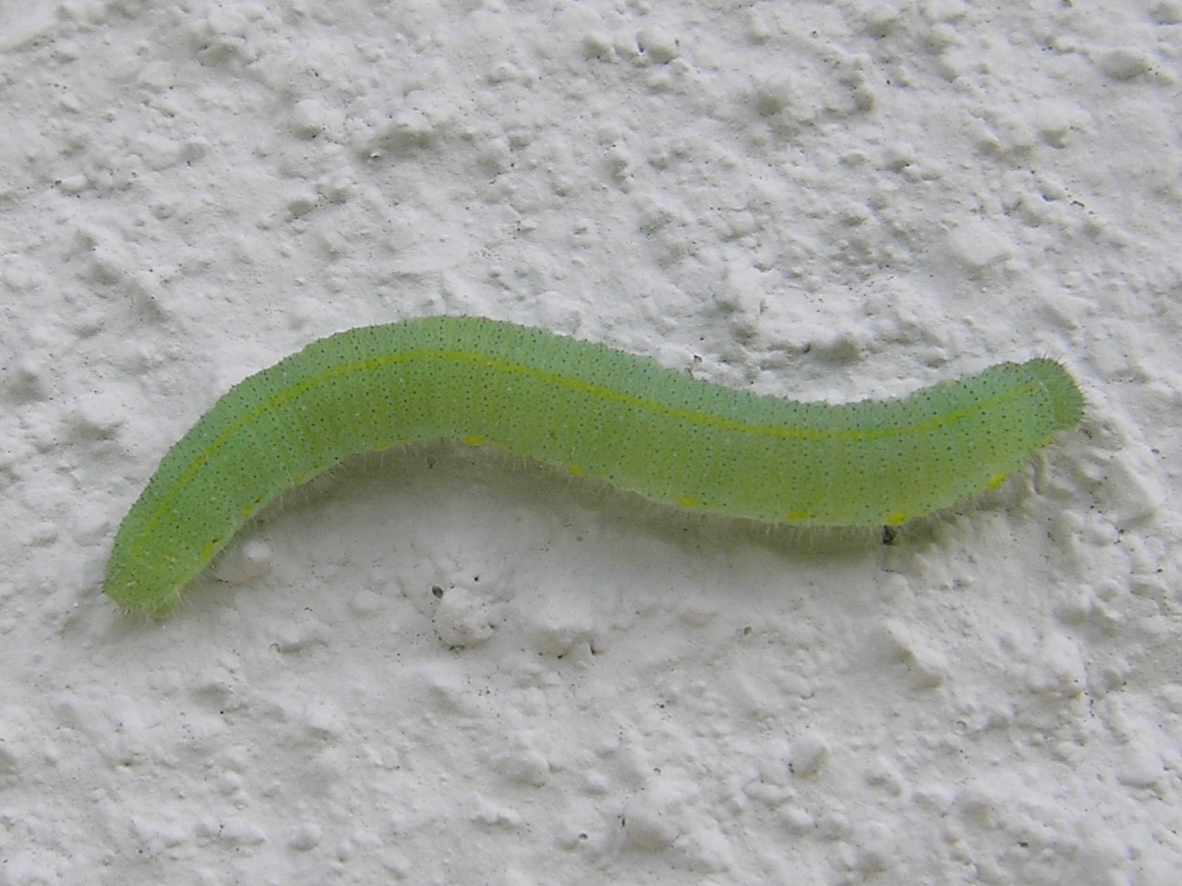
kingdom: Animalia
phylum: Arthropoda
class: Insecta
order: Lepidoptera
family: Pieridae
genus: Pieris
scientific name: Pieris rapae
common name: Small white
